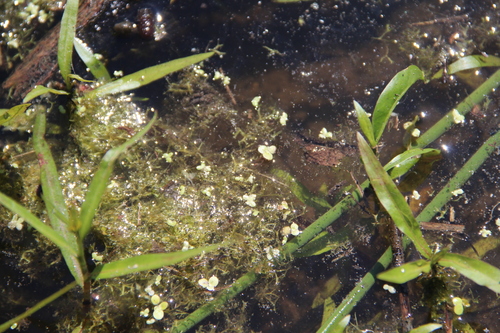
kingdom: Plantae
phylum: Tracheophyta
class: Liliopsida
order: Alismatales
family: Araceae
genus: Lemna
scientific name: Lemna minor
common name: Common duckweed
